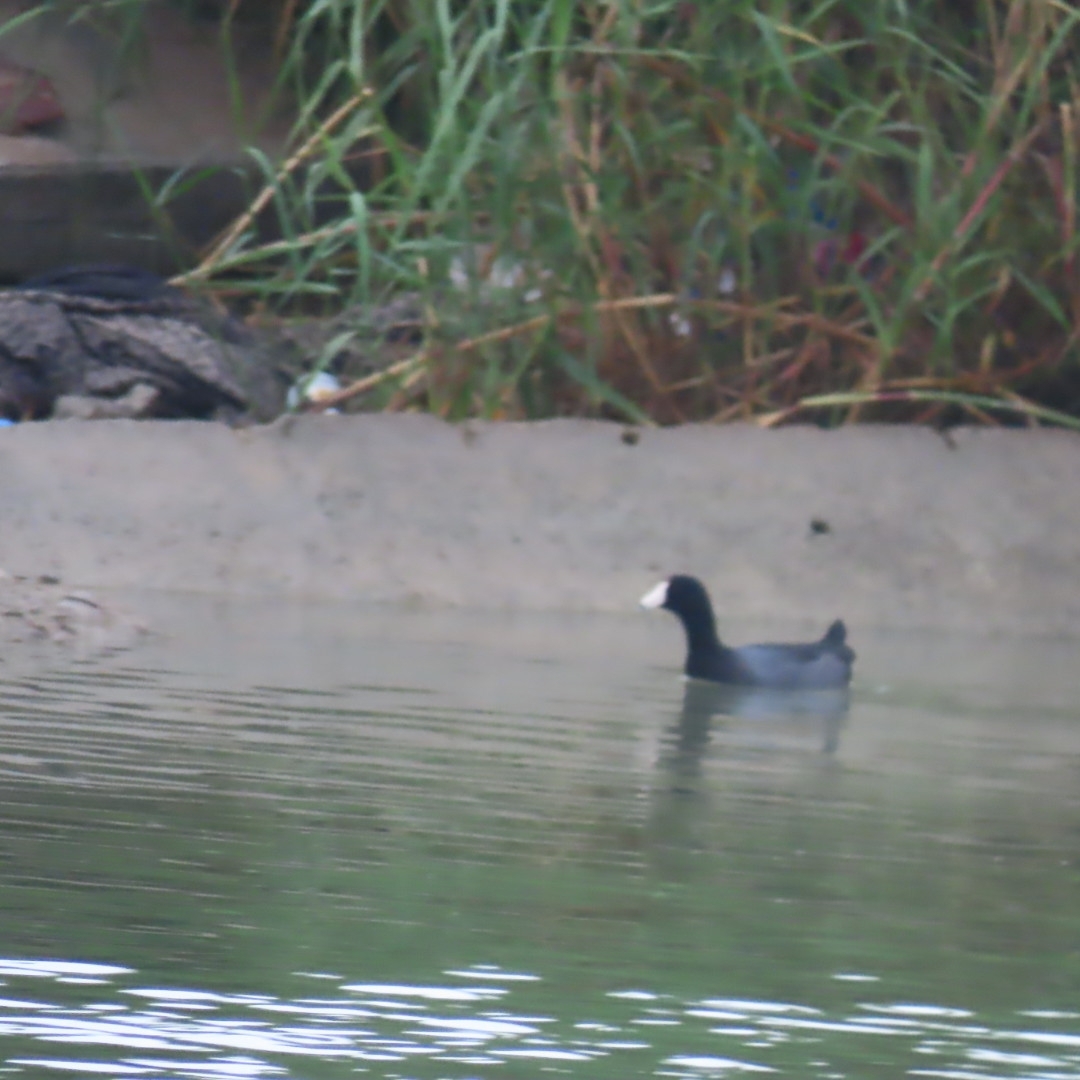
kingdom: Animalia
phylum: Chordata
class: Aves
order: Gruiformes
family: Rallidae
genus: Fulica
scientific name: Fulica americana
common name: American coot
